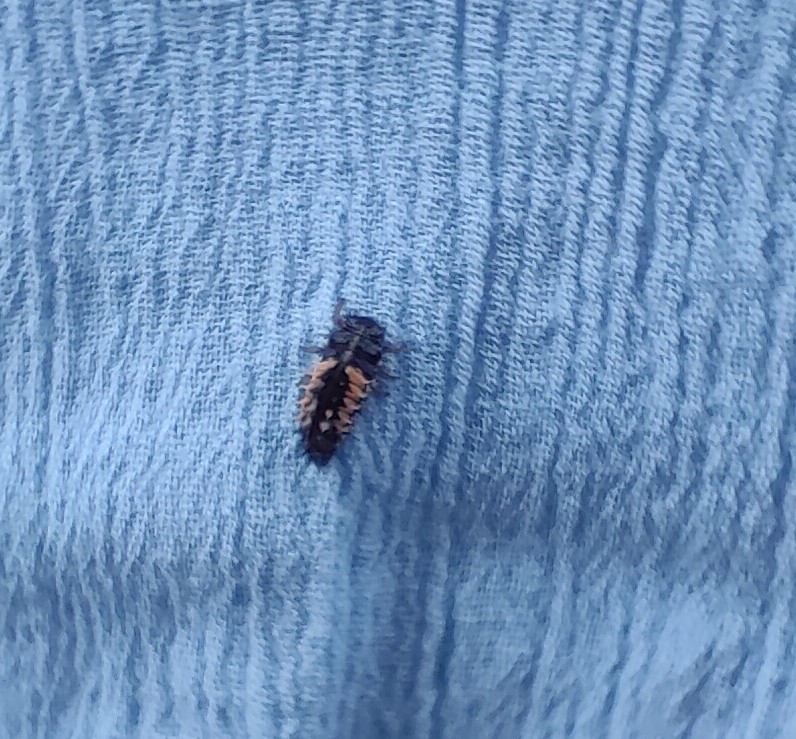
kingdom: Animalia
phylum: Arthropoda
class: Insecta
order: Coleoptera
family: Coccinellidae
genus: Harmonia
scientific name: Harmonia axyridis
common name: Harlequin ladybird
